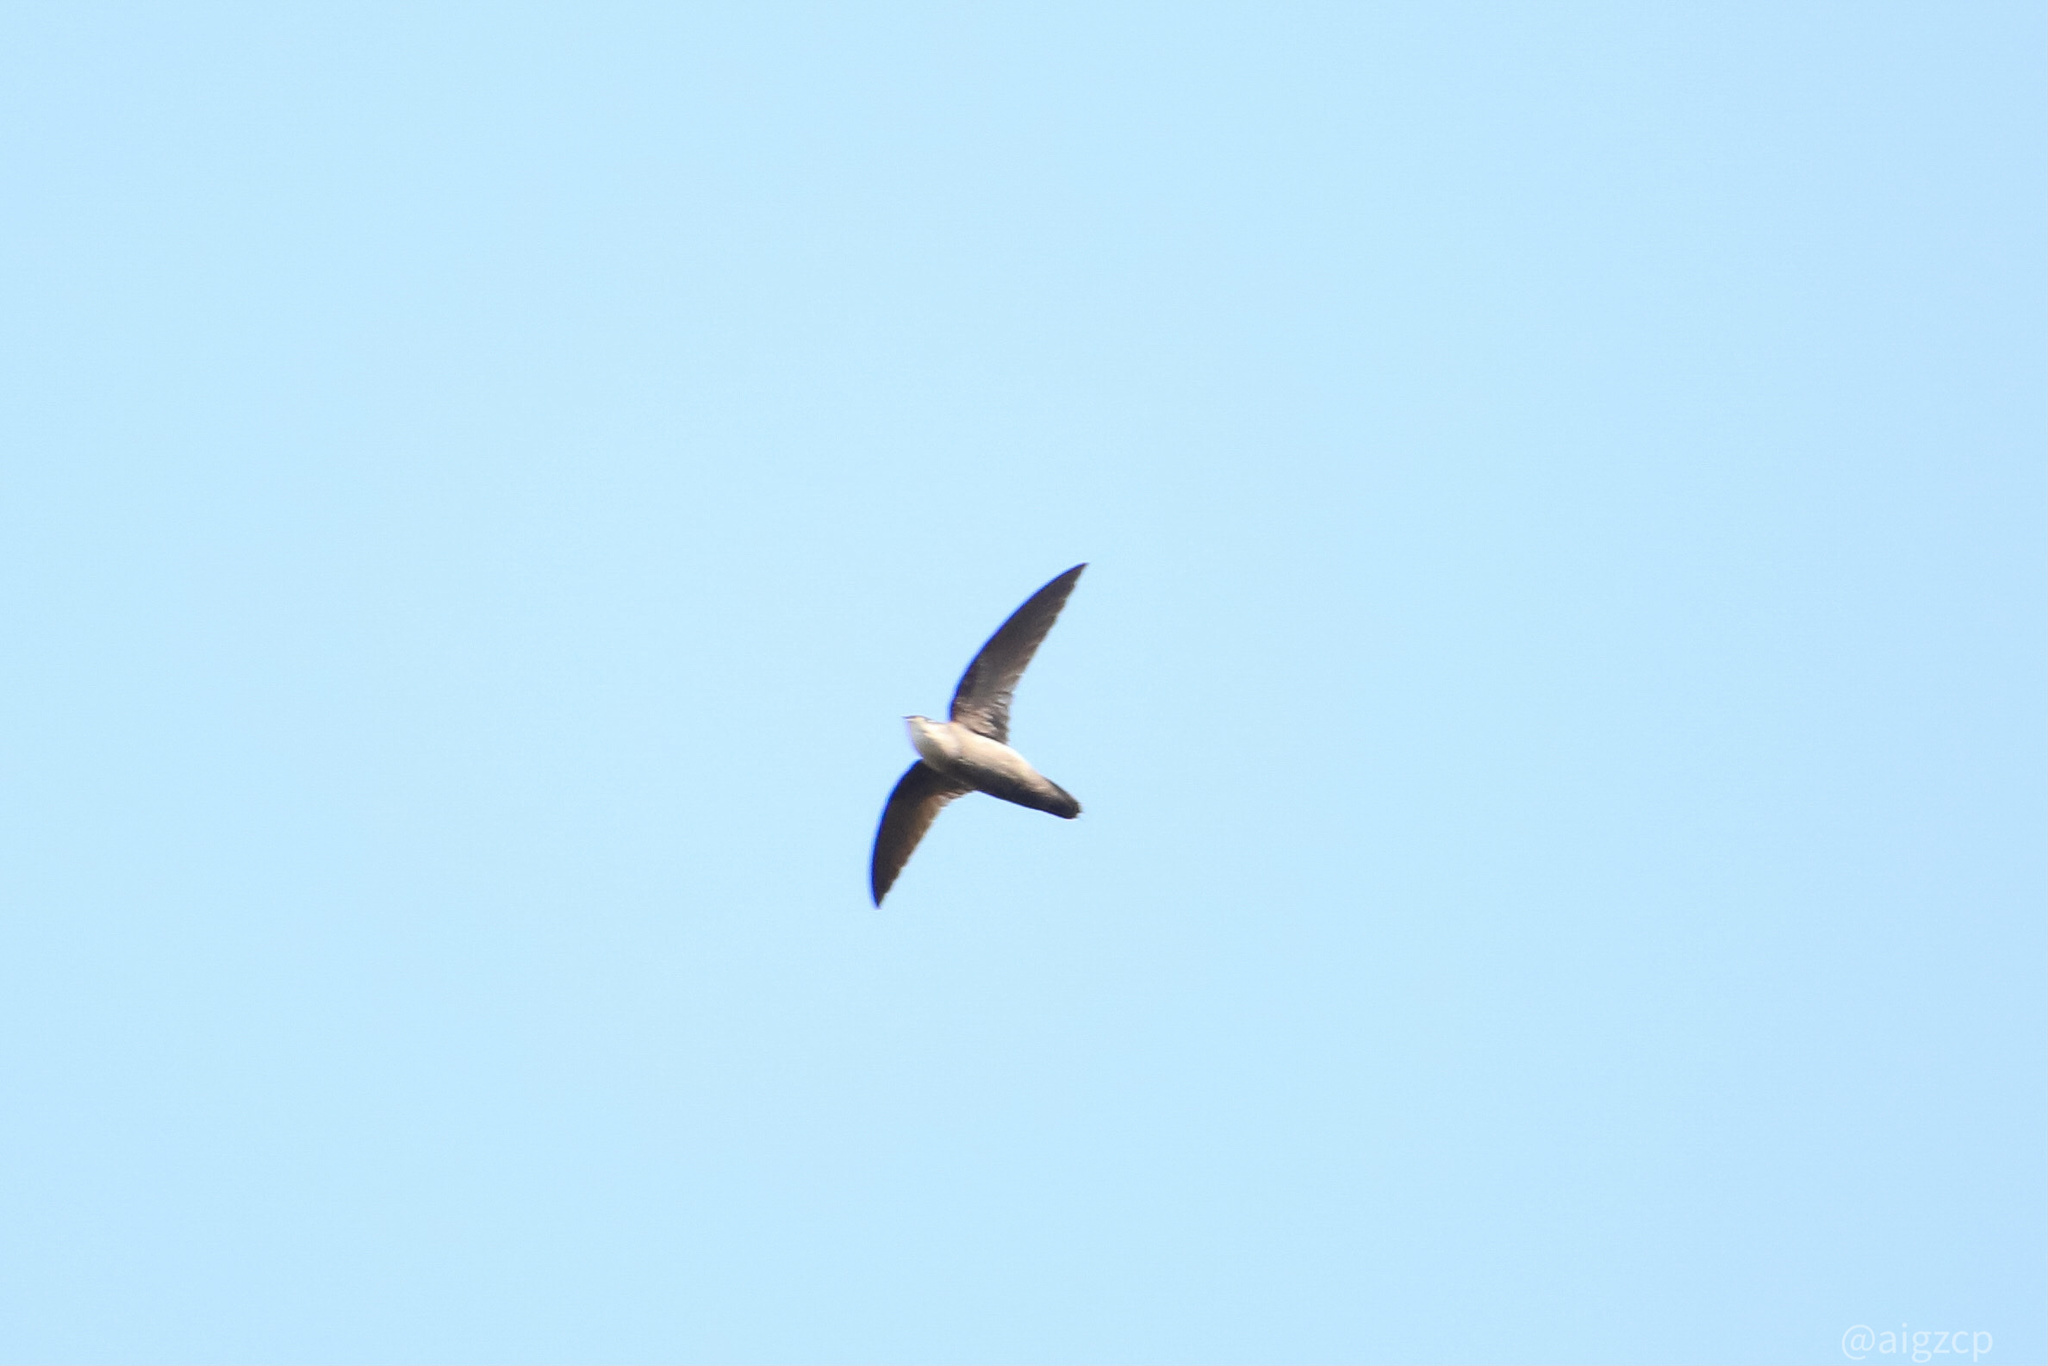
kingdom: Animalia
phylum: Chordata
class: Aves
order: Apodiformes
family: Apodidae
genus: Chaetura
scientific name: Chaetura pelagica
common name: Chimney swift
